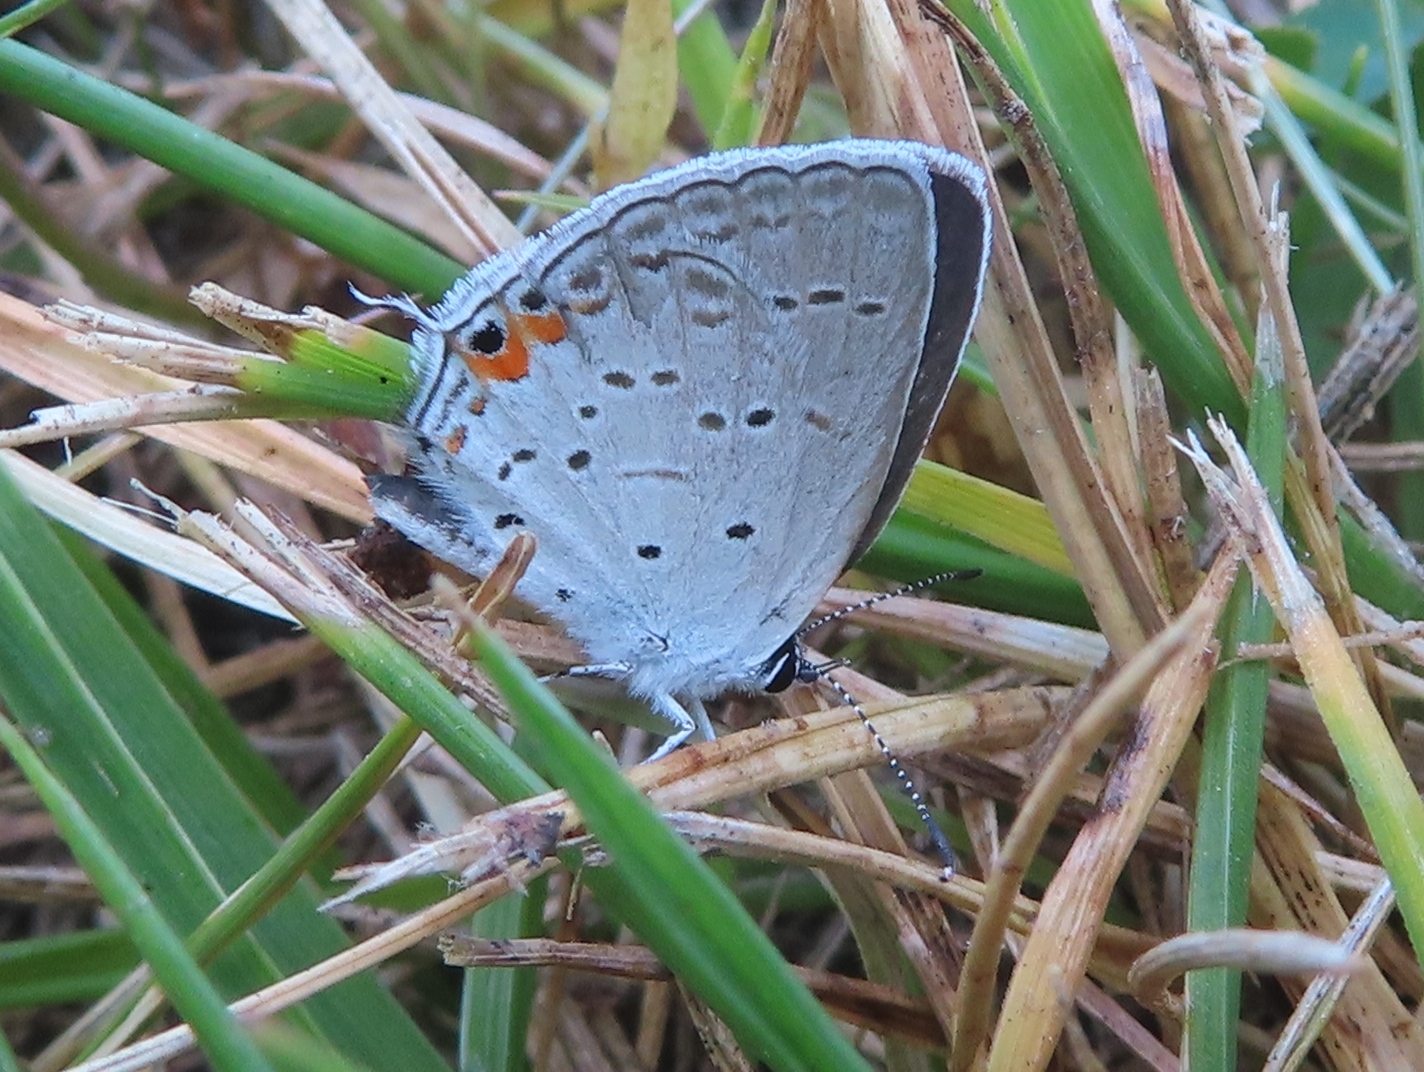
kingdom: Animalia
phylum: Arthropoda
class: Insecta
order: Lepidoptera
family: Lycaenidae
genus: Elkalyce
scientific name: Elkalyce comyntas
